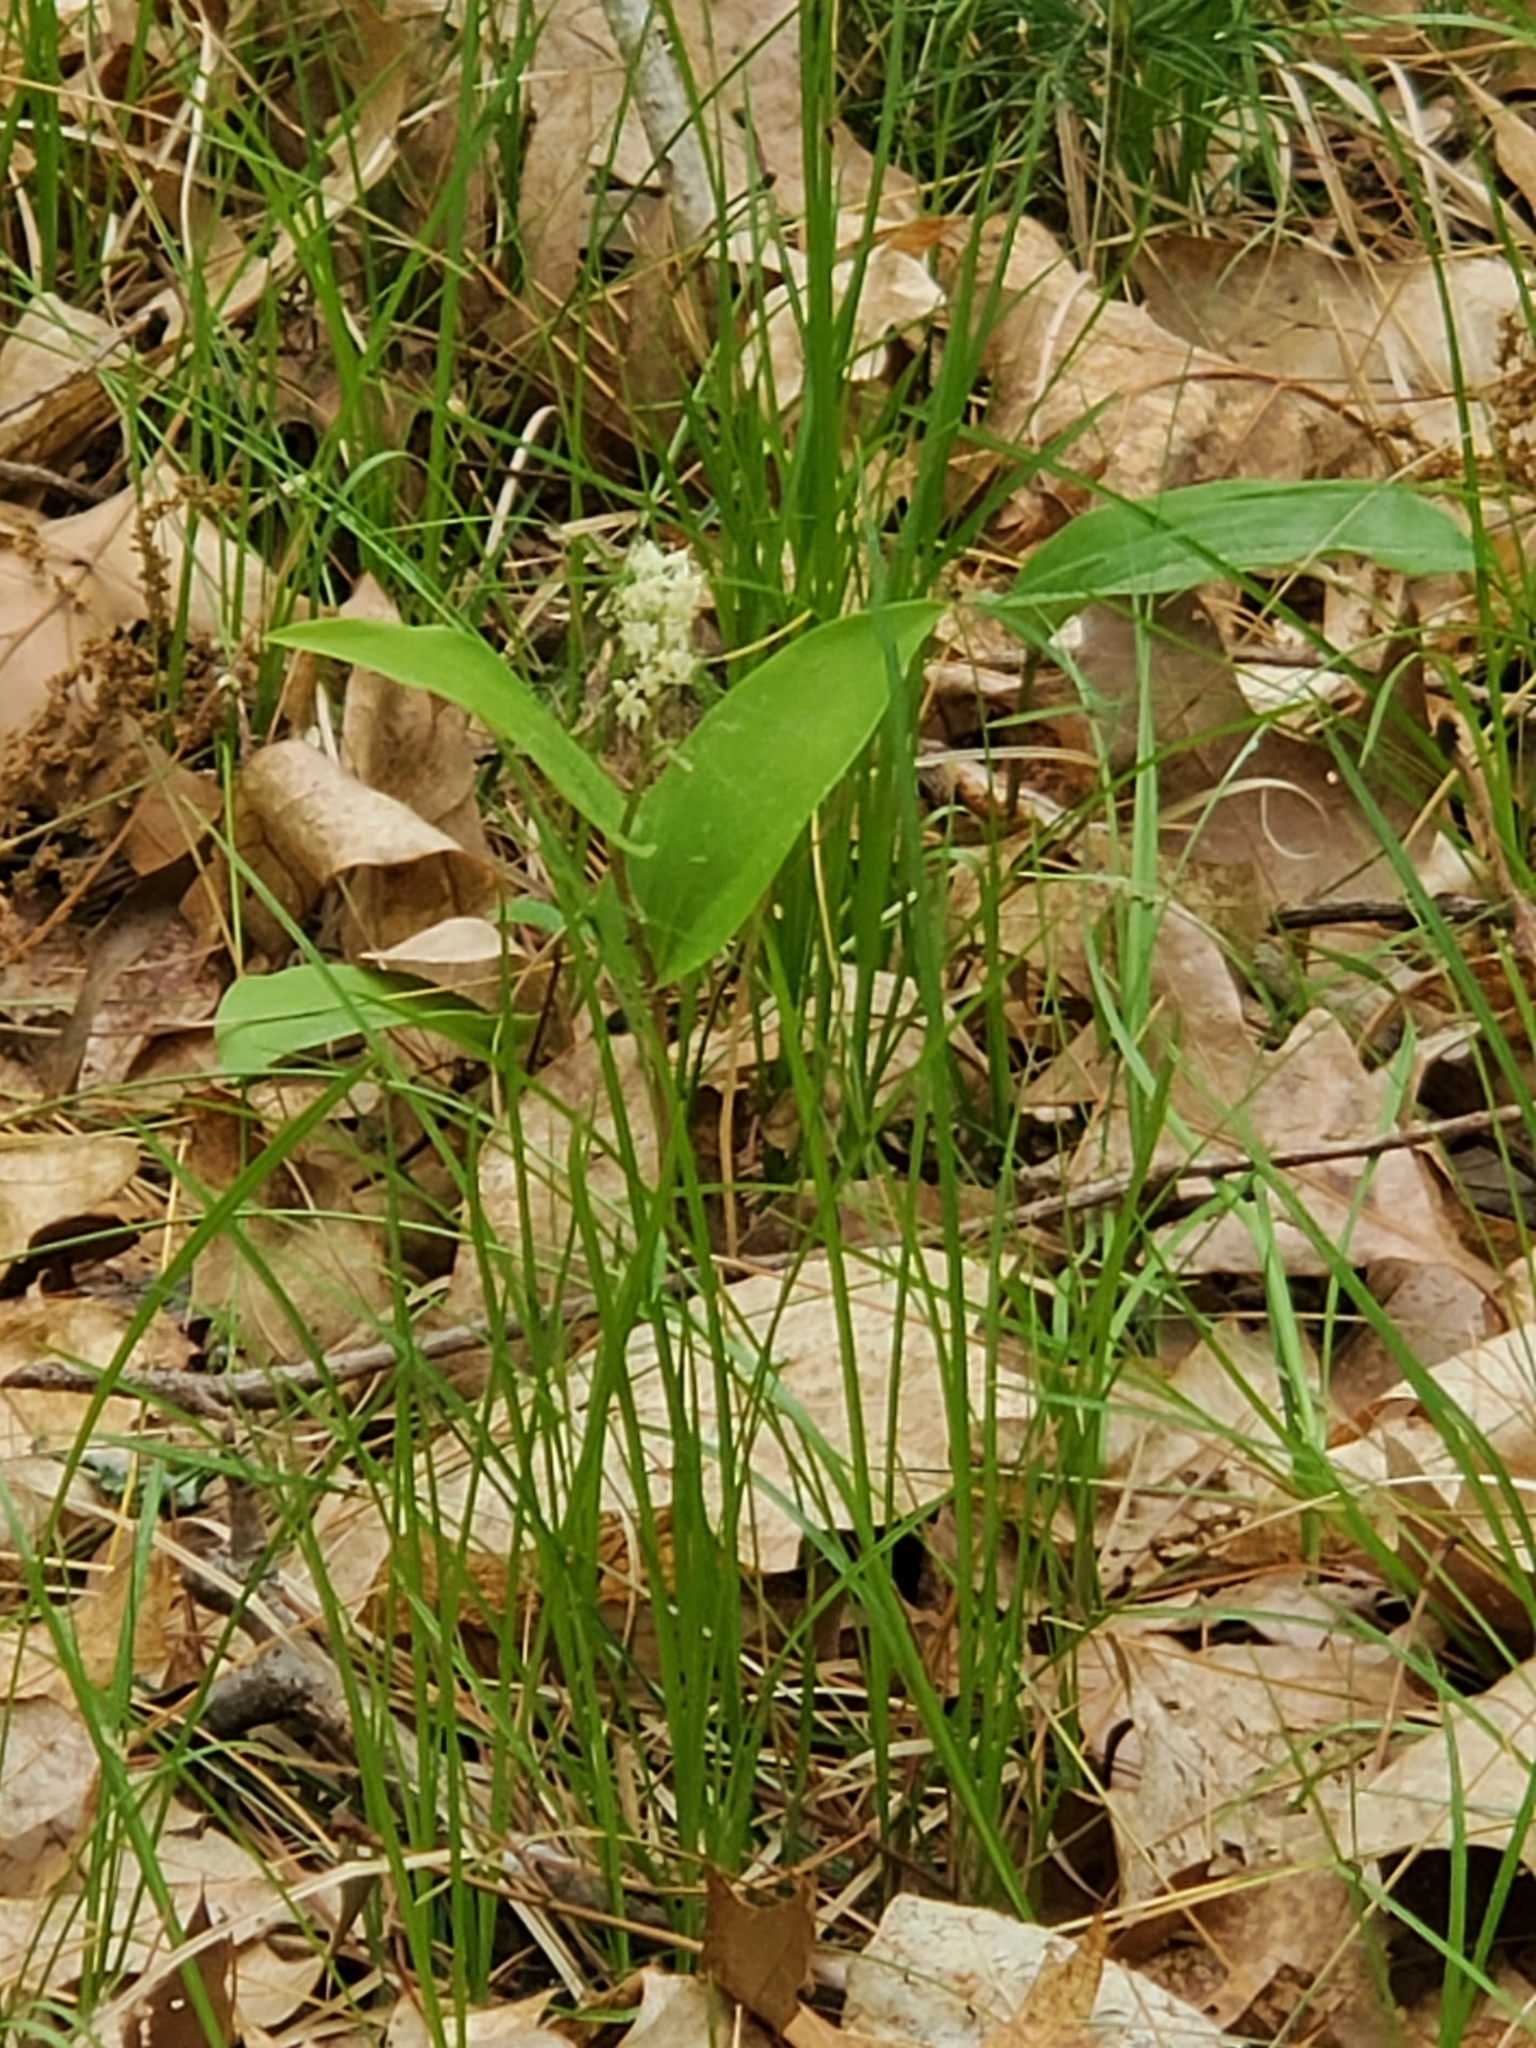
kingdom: Plantae
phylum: Tracheophyta
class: Liliopsida
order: Asparagales
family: Asparagaceae
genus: Maianthemum
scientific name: Maianthemum canadense
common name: False lily-of-the-valley
